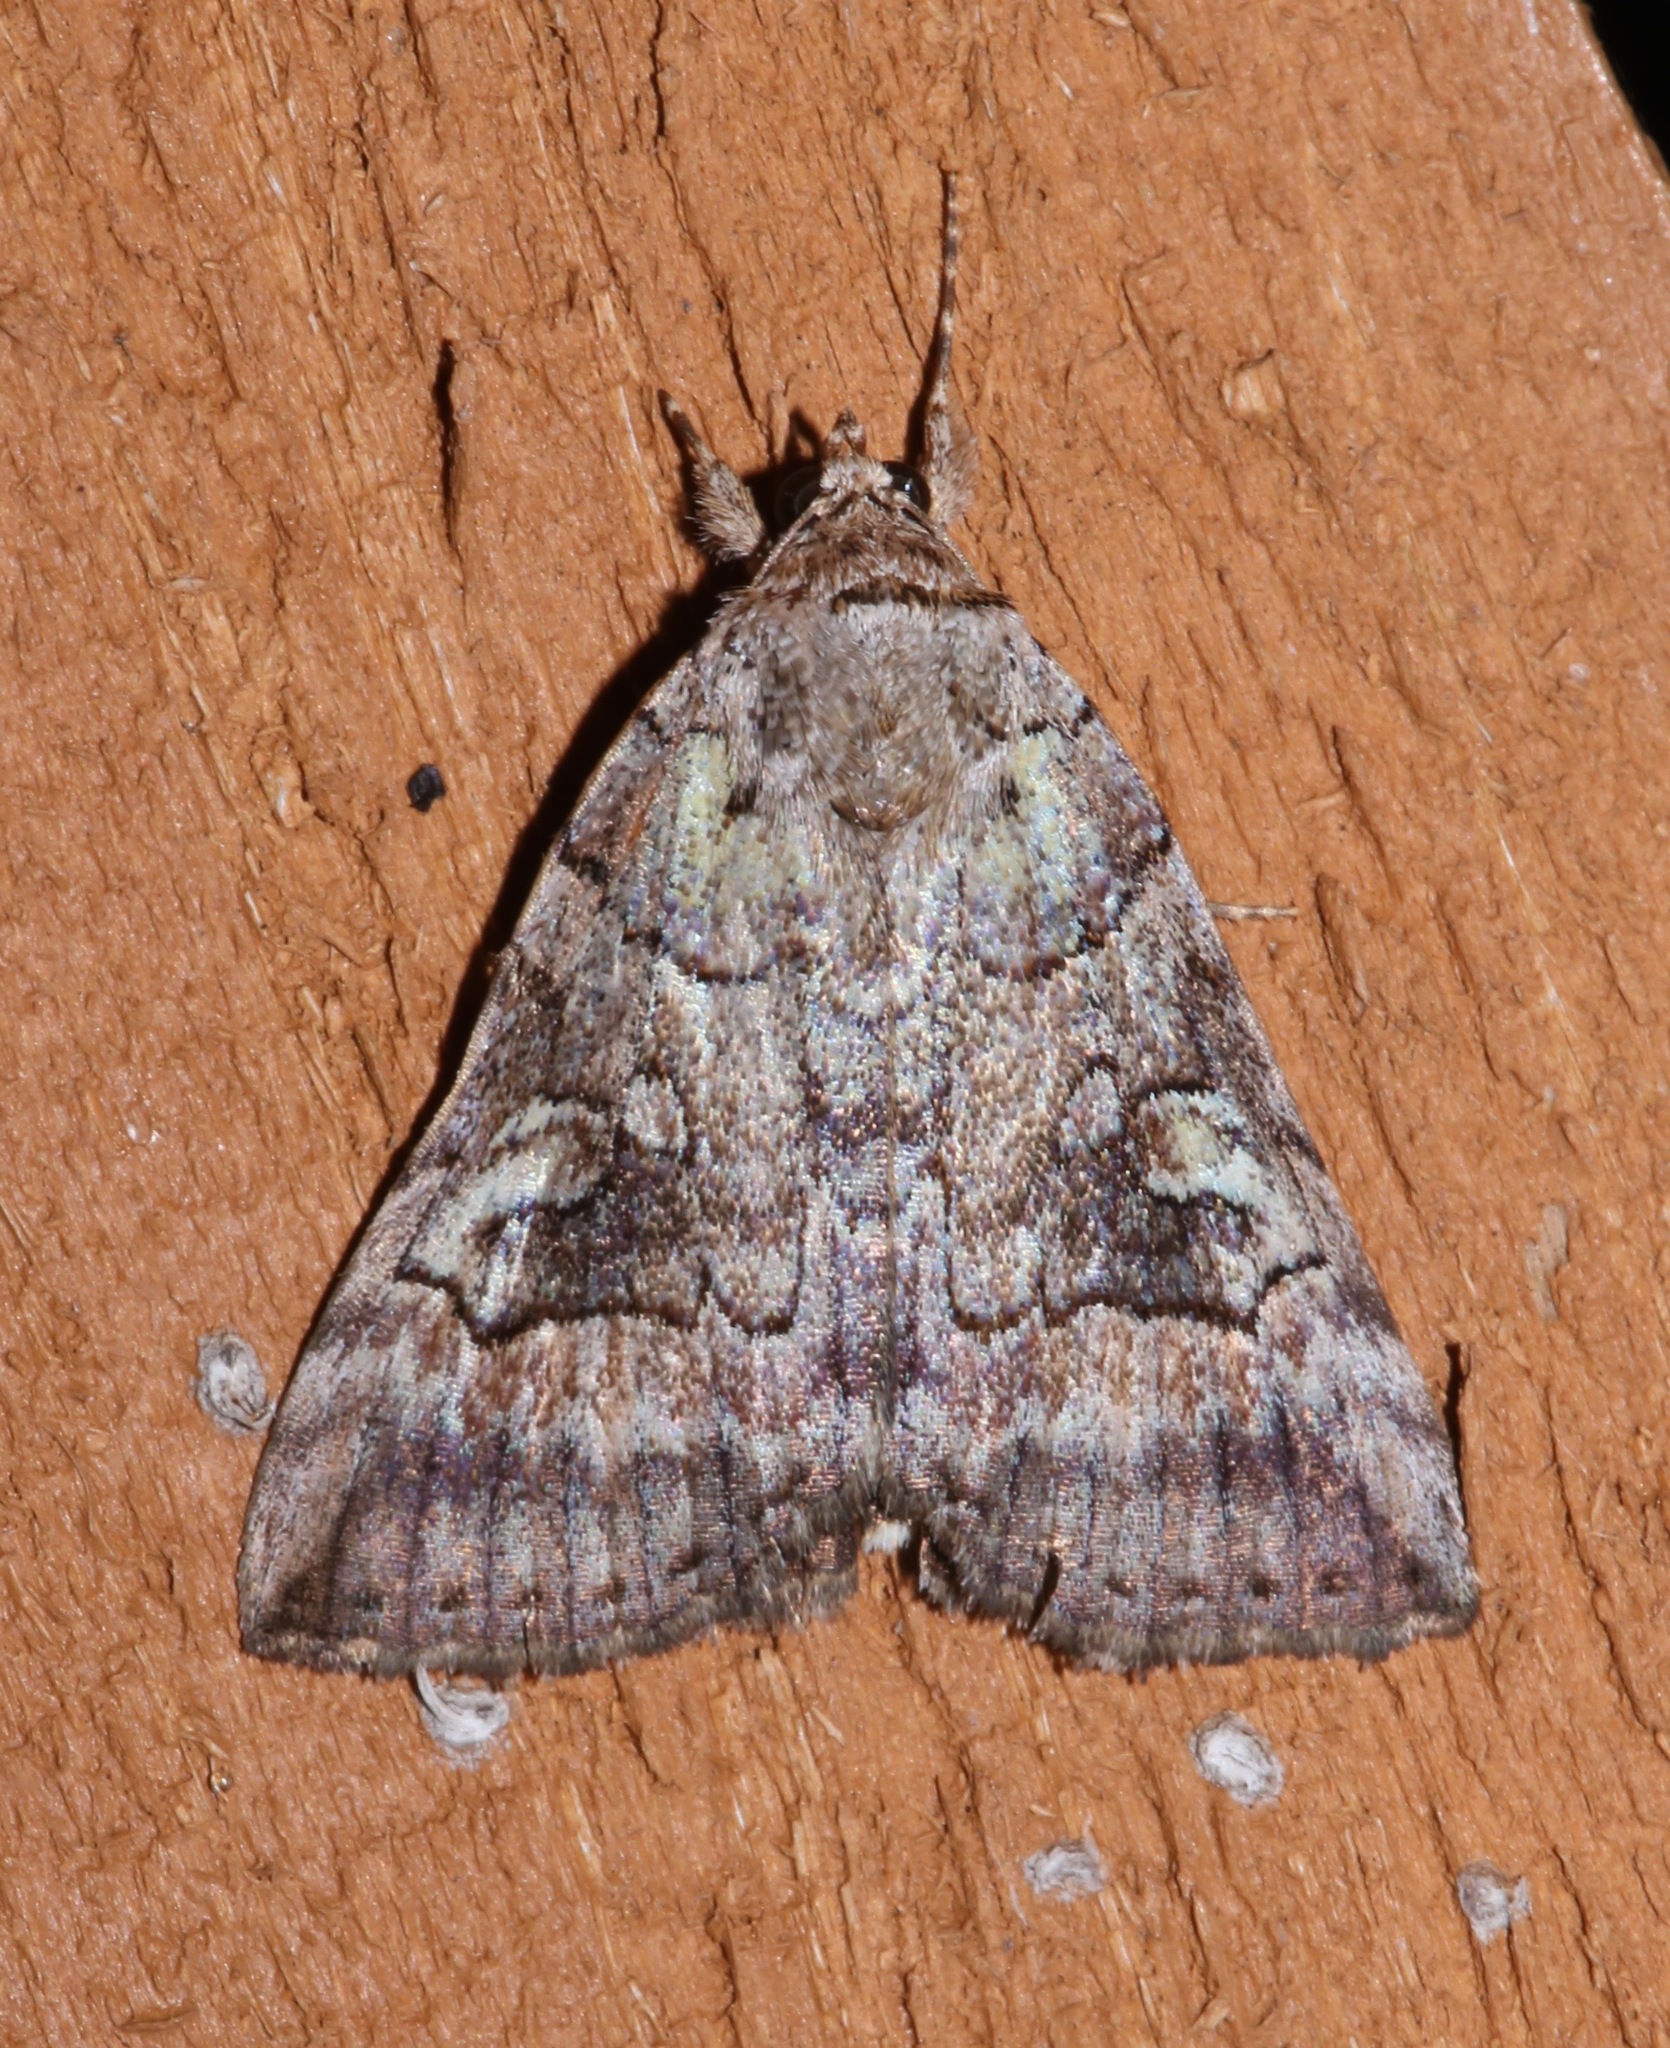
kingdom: Animalia
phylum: Arthropoda
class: Insecta
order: Lepidoptera
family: Erebidae
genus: Catocala
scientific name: Catocala similis
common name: Similar underwing
